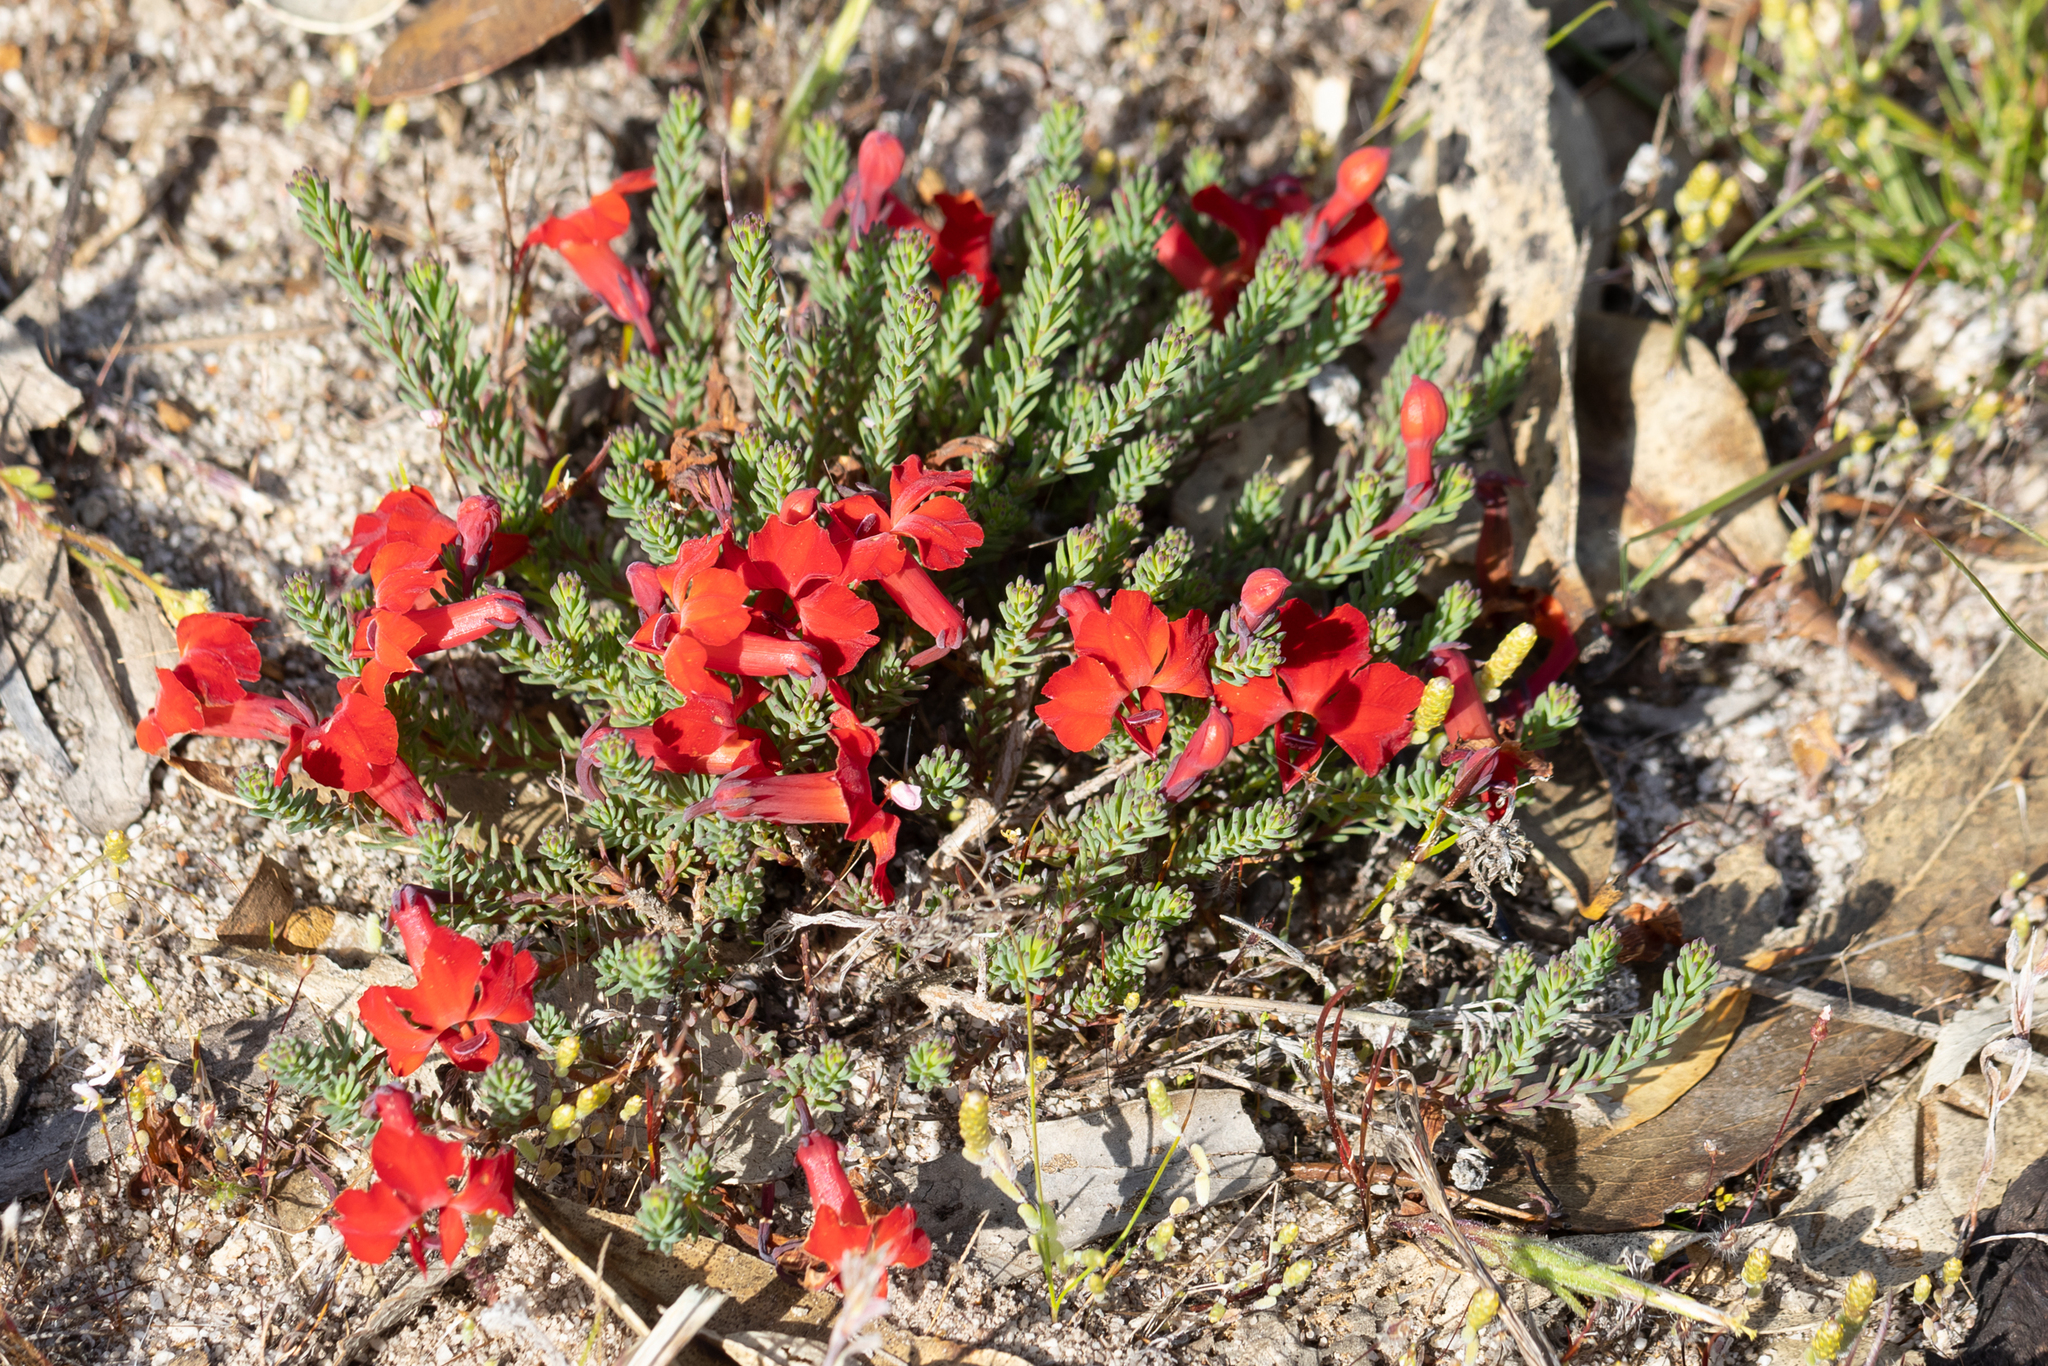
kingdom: Plantae
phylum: Tracheophyta
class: Magnoliopsida
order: Asterales
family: Goodeniaceae
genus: Lechenaultia
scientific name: Lechenaultia formosa
